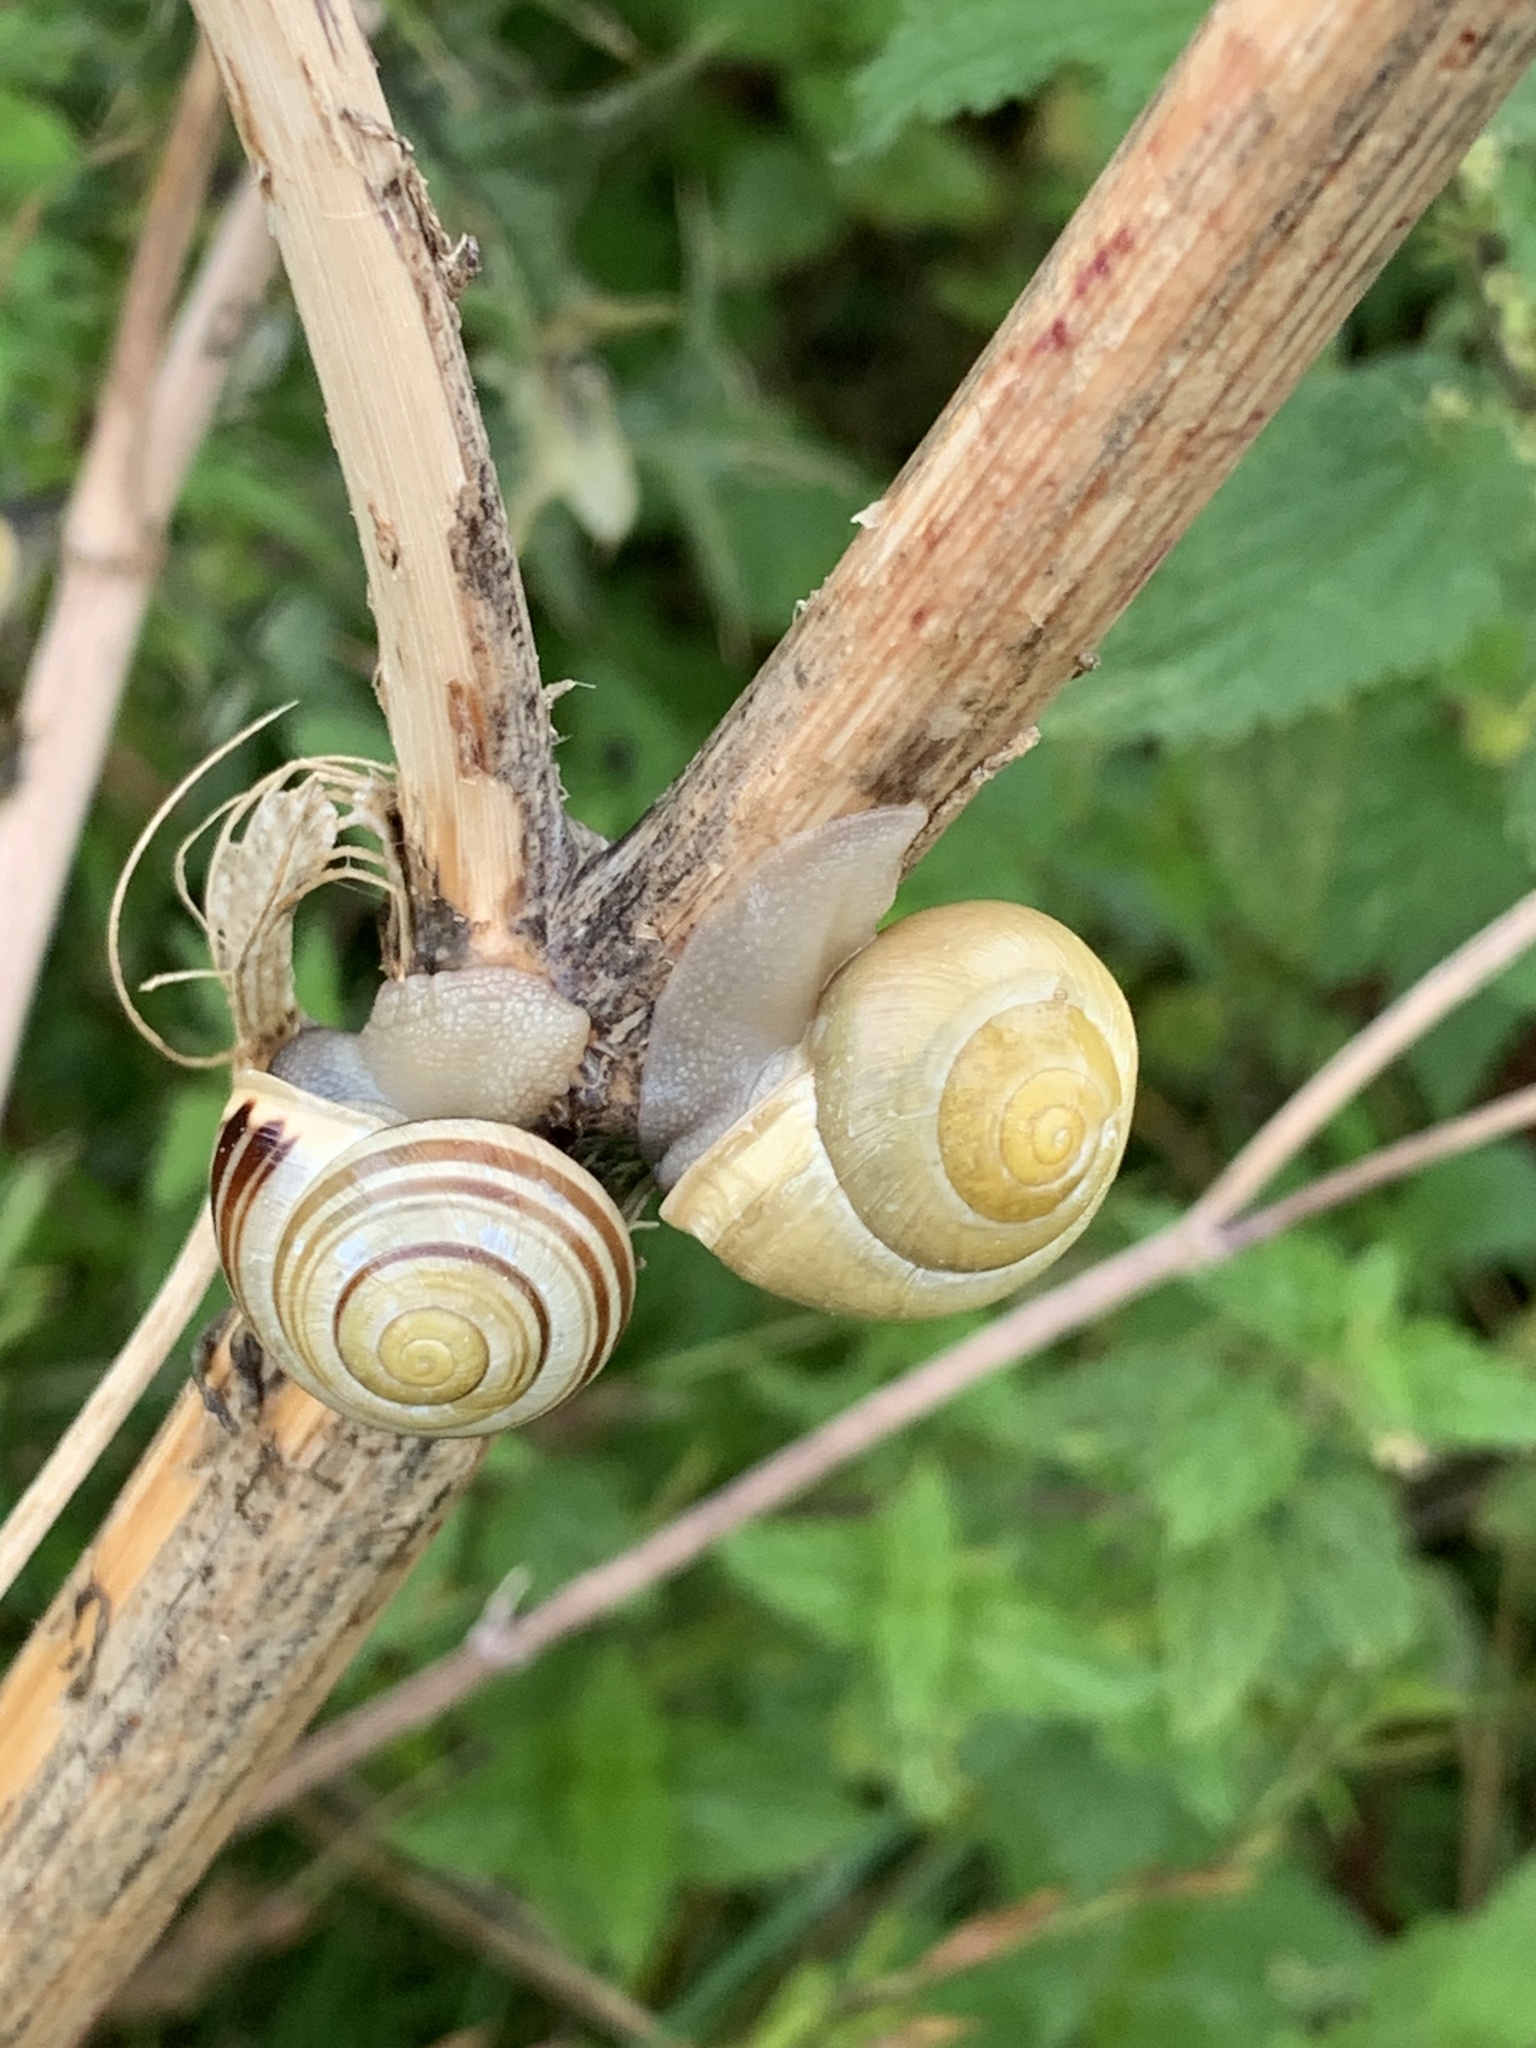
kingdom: Animalia
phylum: Mollusca
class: Gastropoda
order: Stylommatophora
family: Helicidae
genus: Cepaea
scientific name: Cepaea hortensis
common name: White-lip gardensnail
